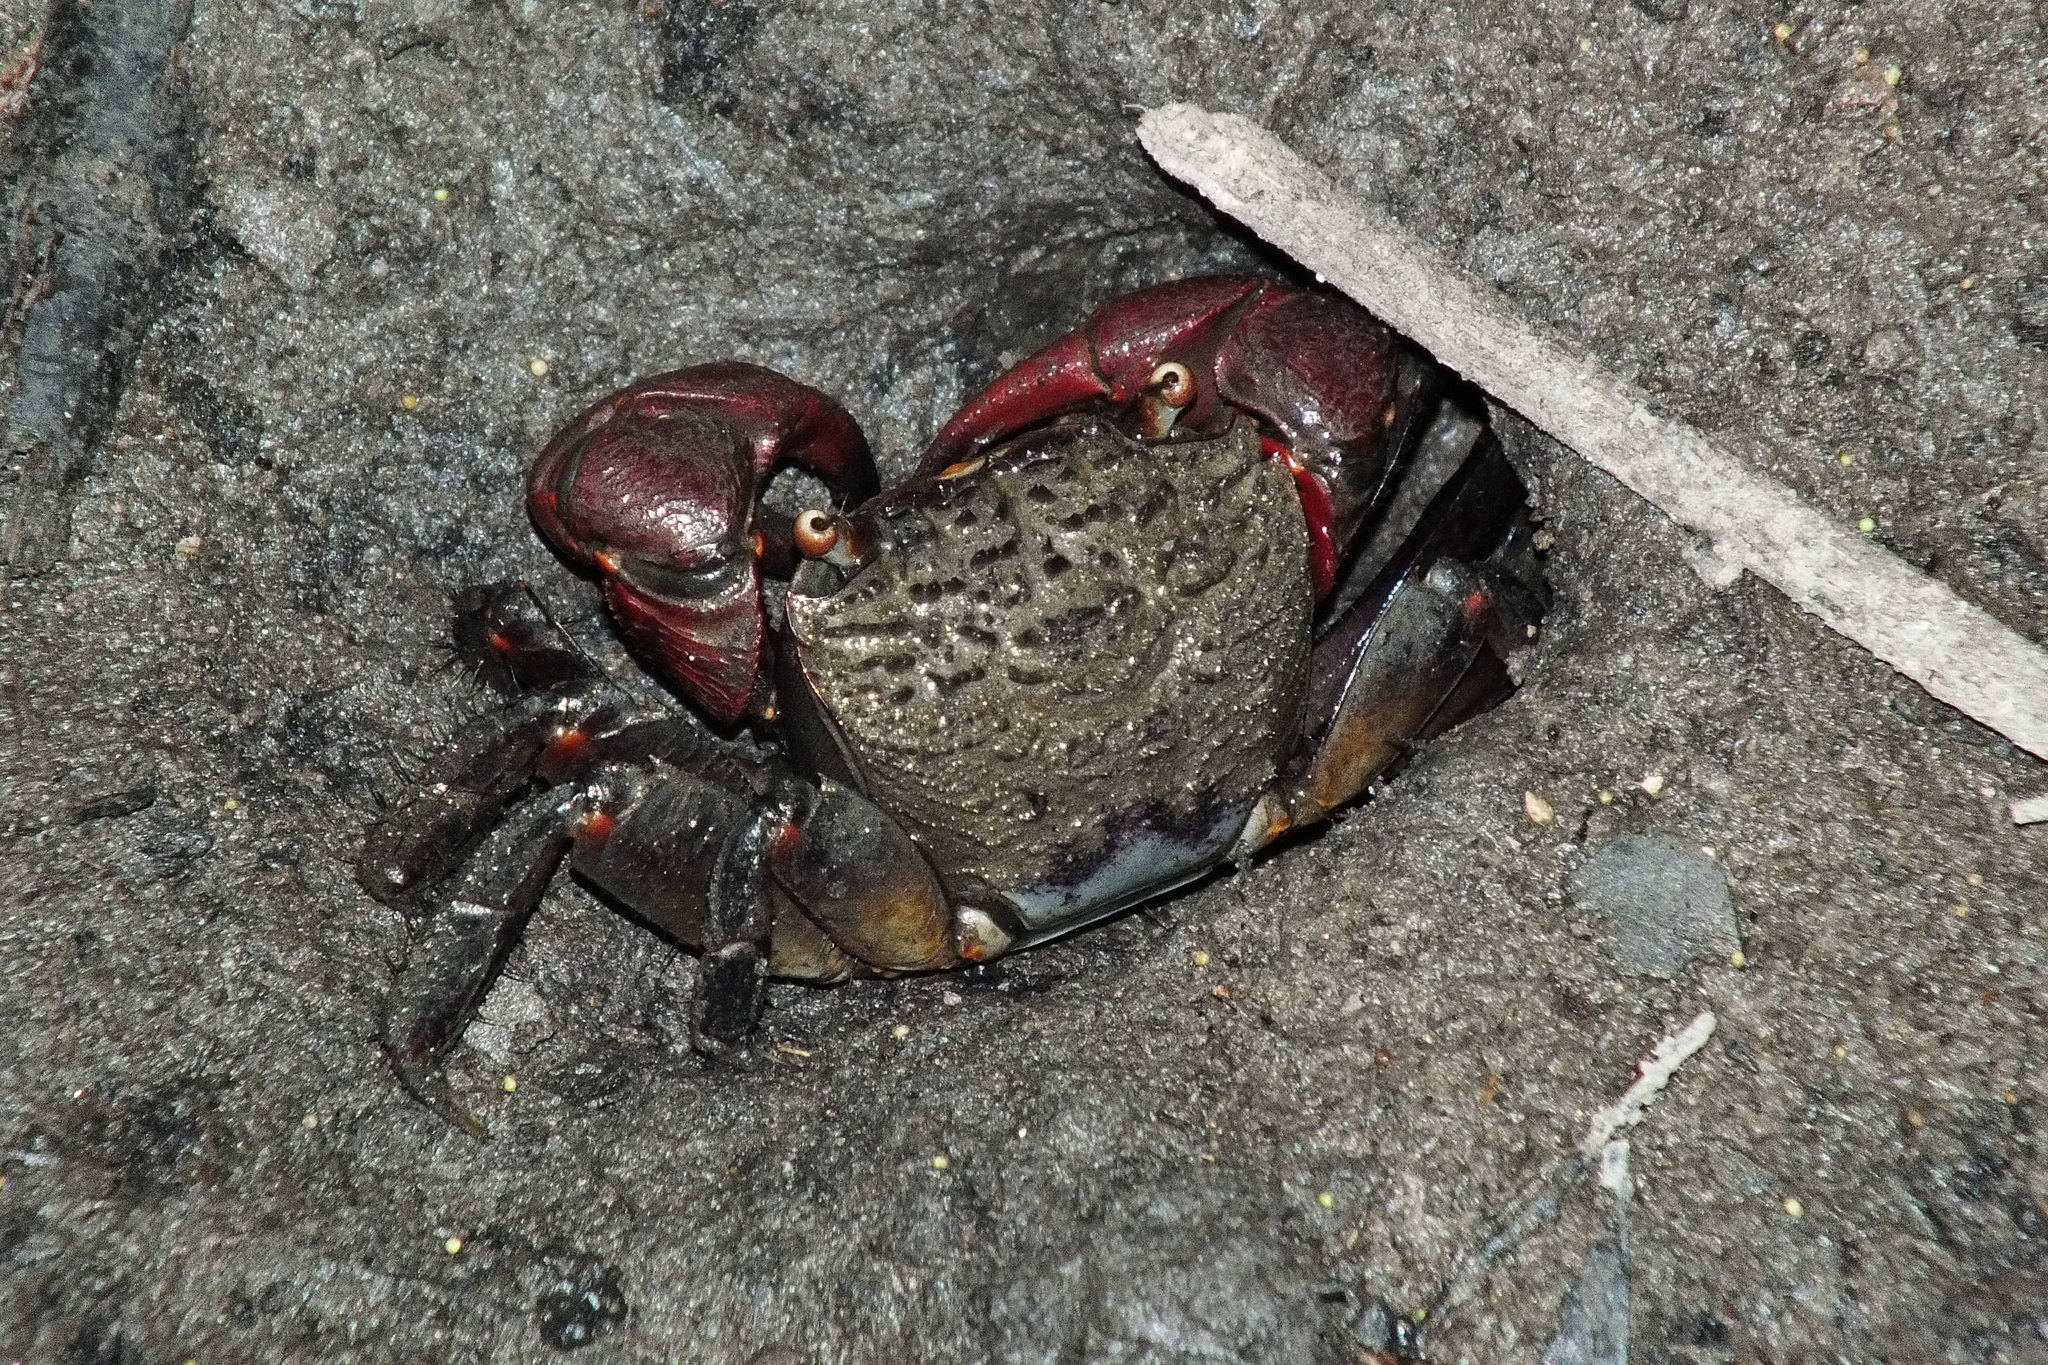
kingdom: Animalia
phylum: Arthropoda
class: Malacostraca
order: Decapoda
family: Sesarmidae
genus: Neosarmatium
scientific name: Neosarmatium fourmanoiri
